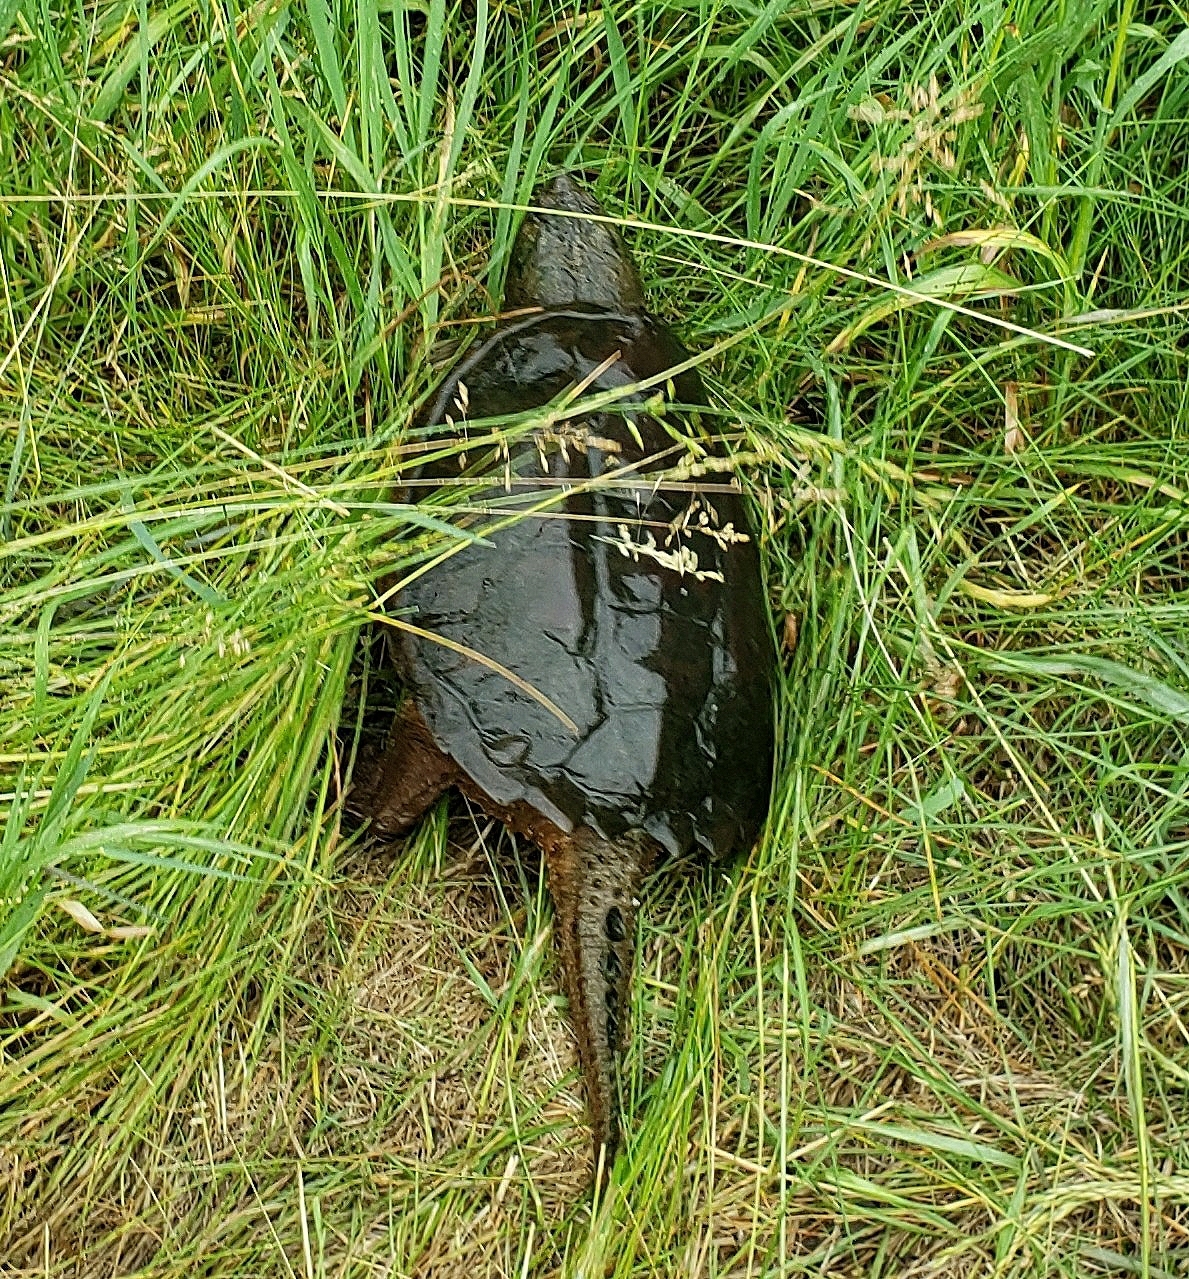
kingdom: Animalia
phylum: Chordata
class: Testudines
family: Chelydridae
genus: Chelydra
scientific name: Chelydra serpentina
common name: Common snapping turtle
